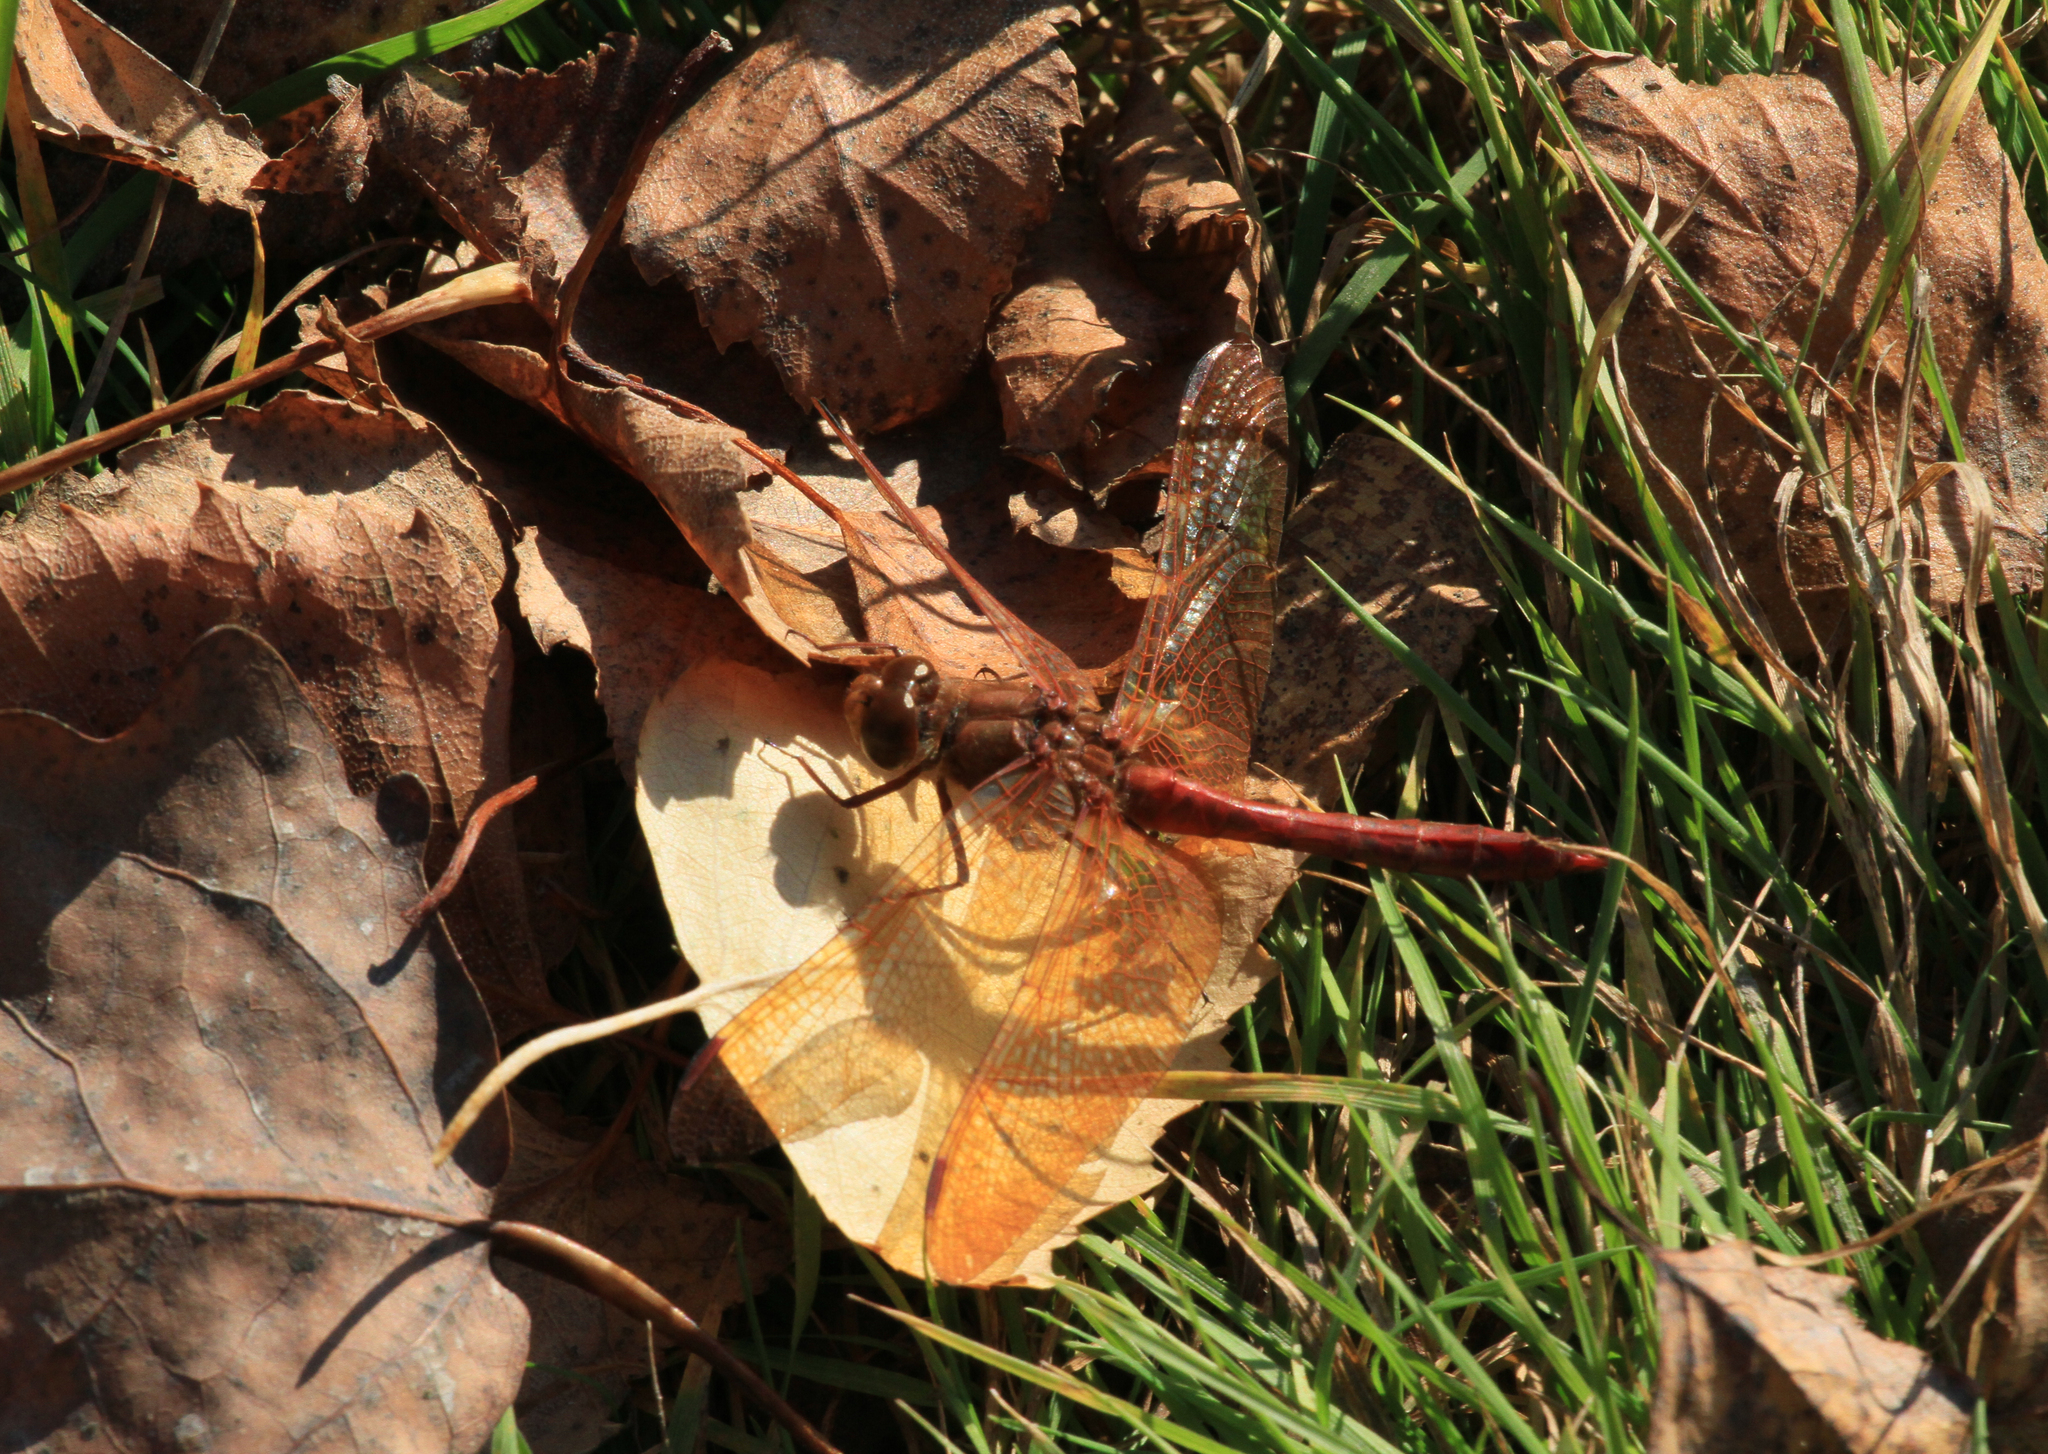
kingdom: Animalia
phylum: Arthropoda
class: Insecta
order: Odonata
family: Libellulidae
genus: Sympetrum
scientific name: Sympetrum croceolum
